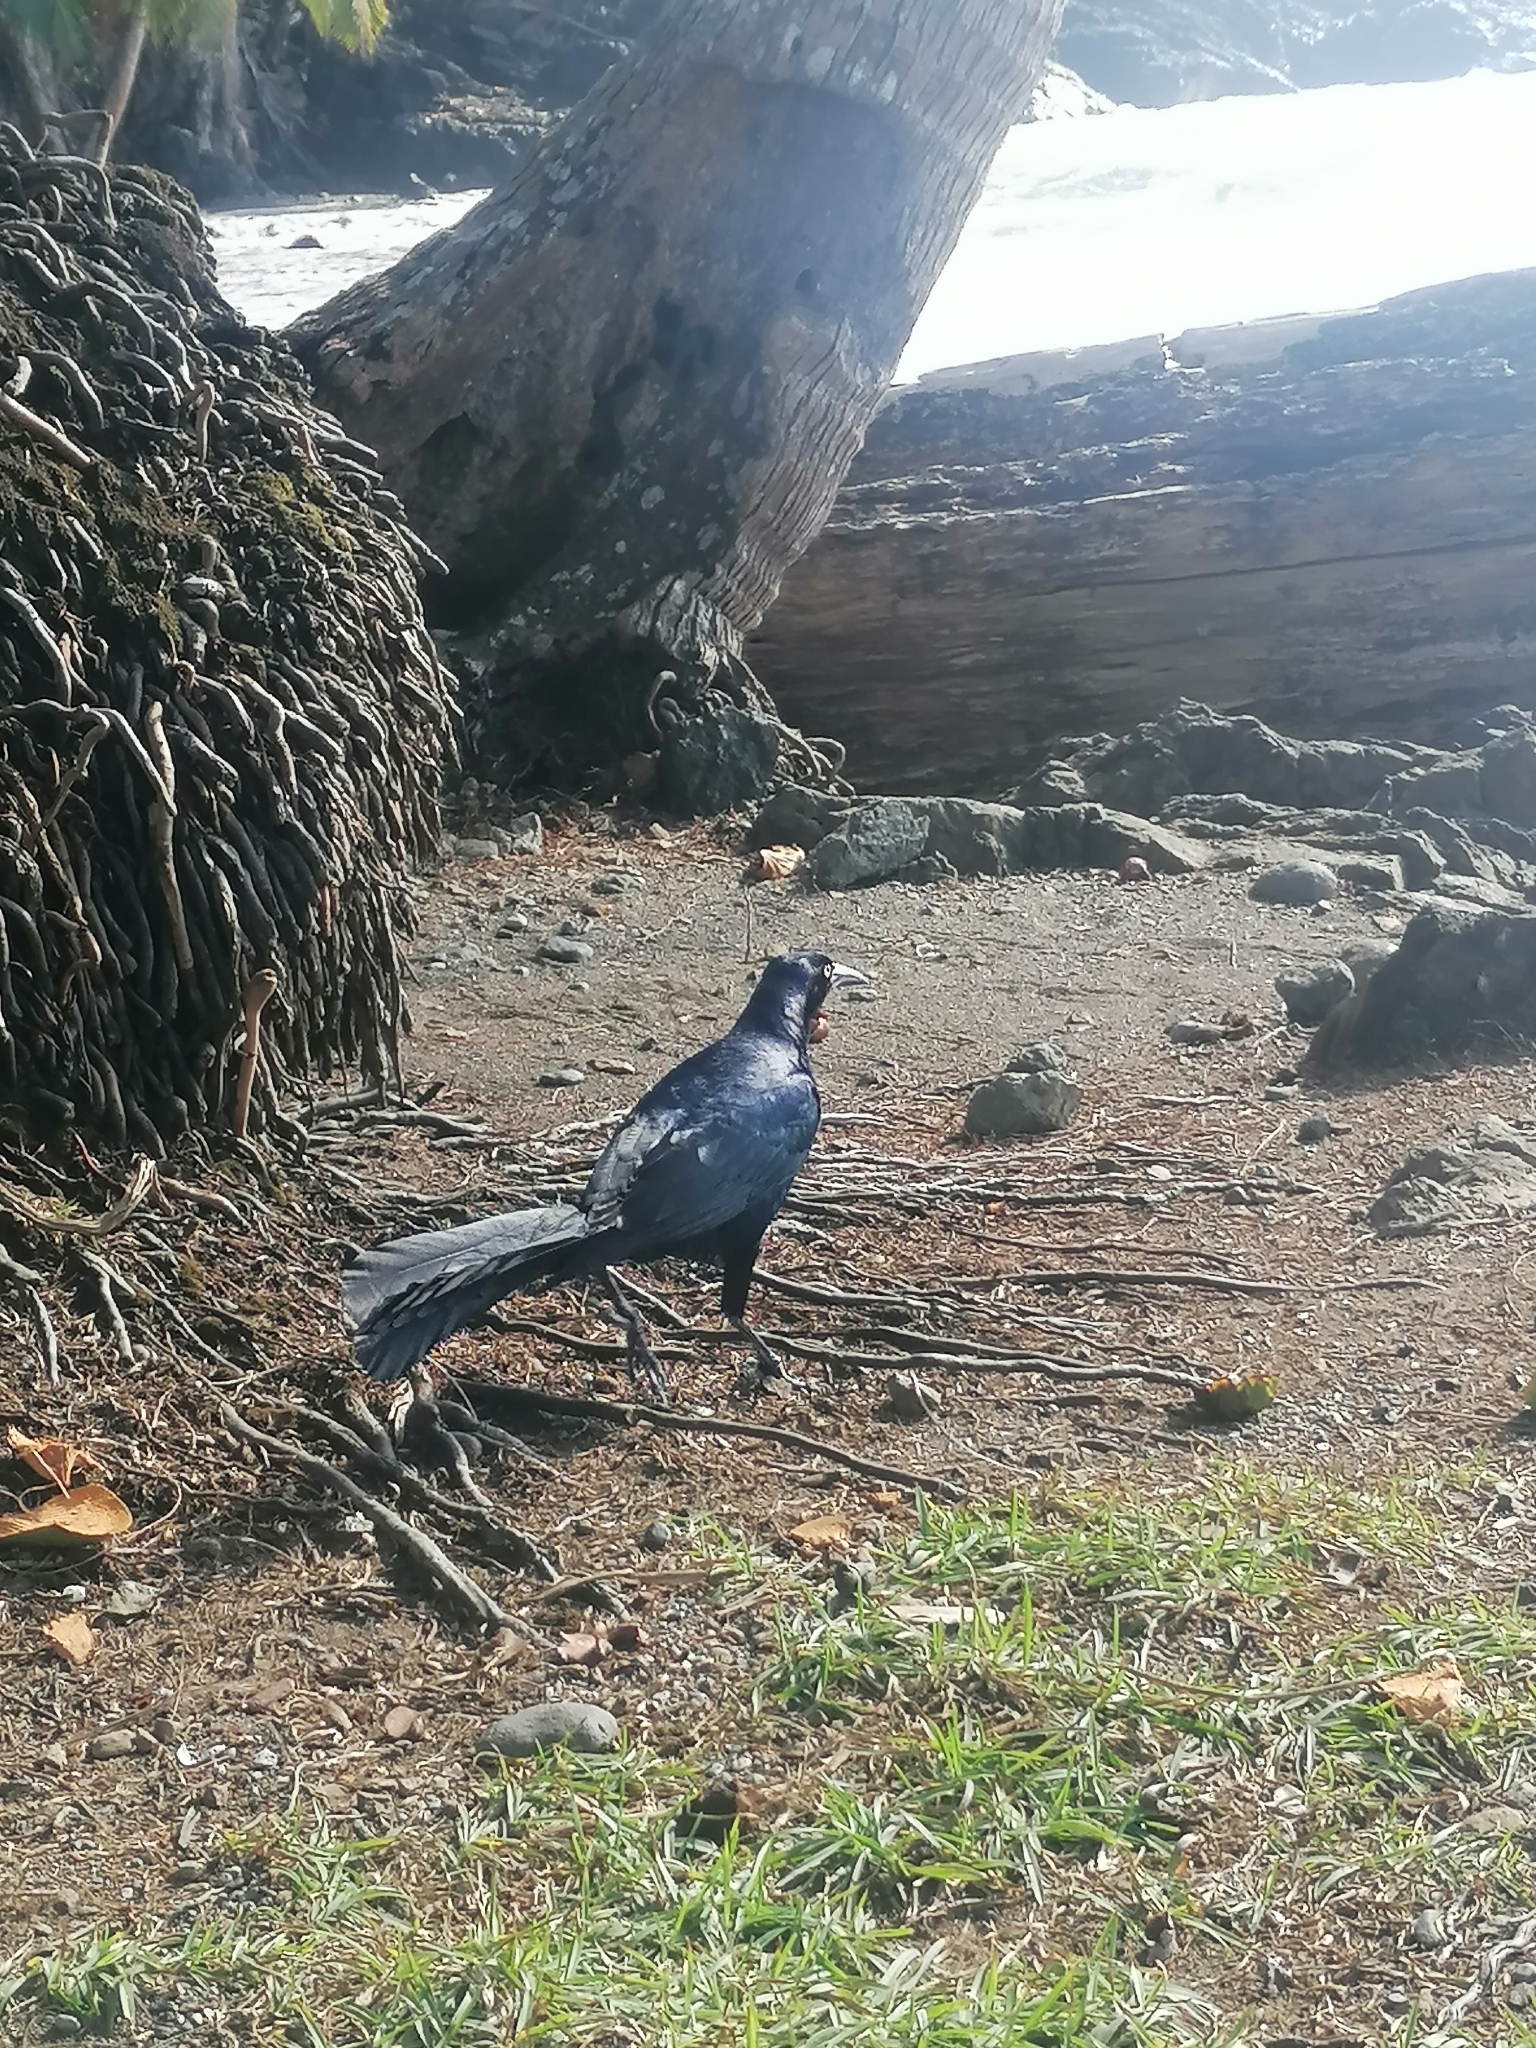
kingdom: Animalia
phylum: Chordata
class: Aves
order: Passeriformes
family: Icteridae
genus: Quiscalus
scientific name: Quiscalus mexicanus
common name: Great-tailed grackle
